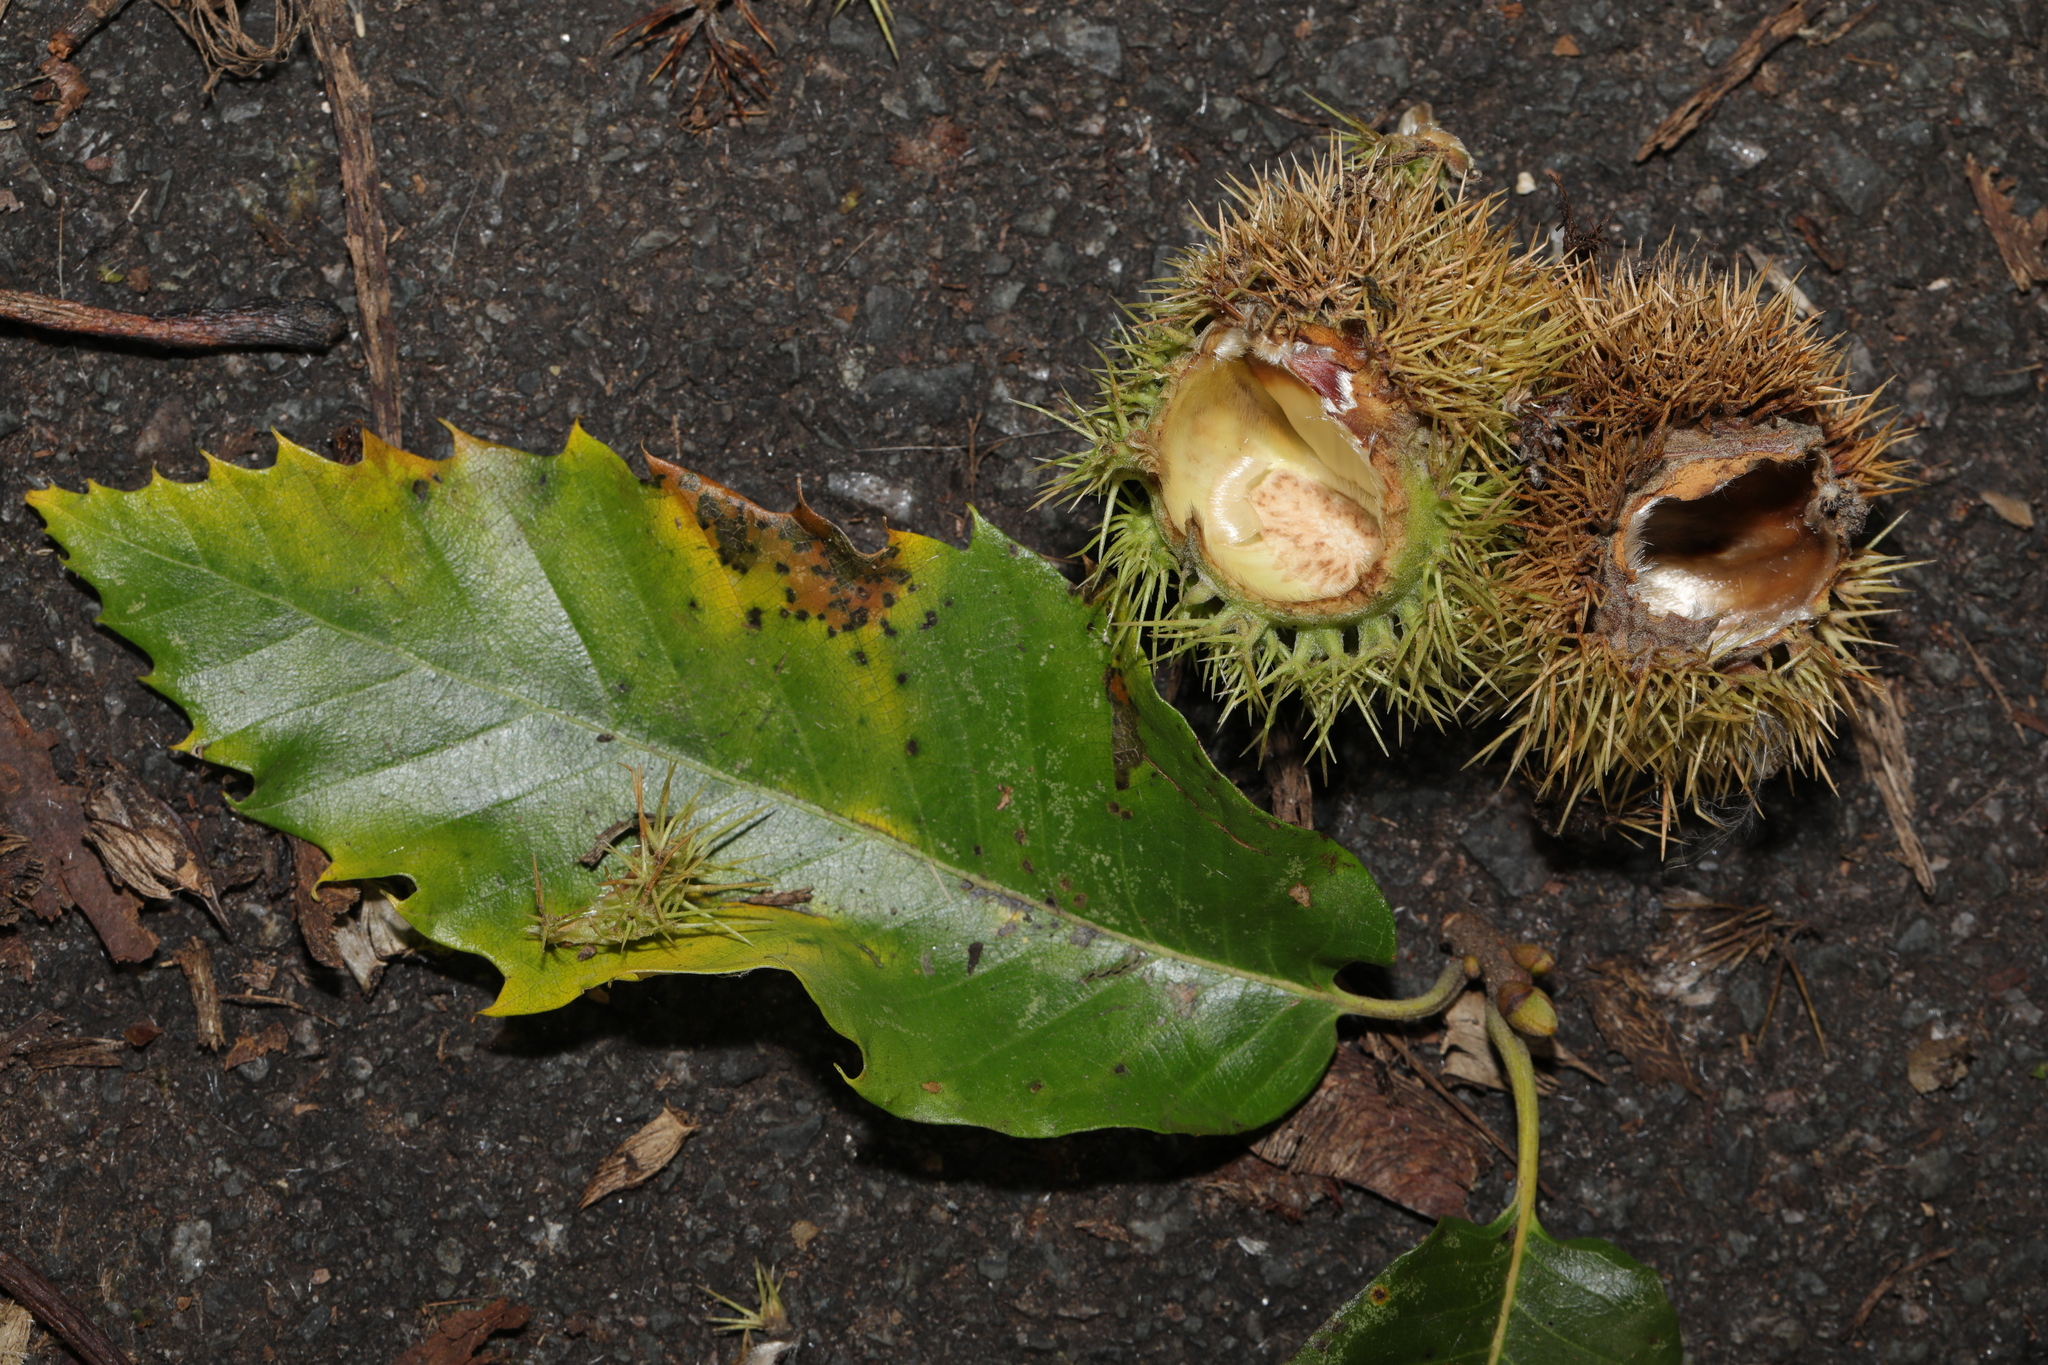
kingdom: Plantae
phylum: Tracheophyta
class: Magnoliopsida
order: Fagales
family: Fagaceae
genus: Castanea
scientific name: Castanea sativa
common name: Sweet chestnut
